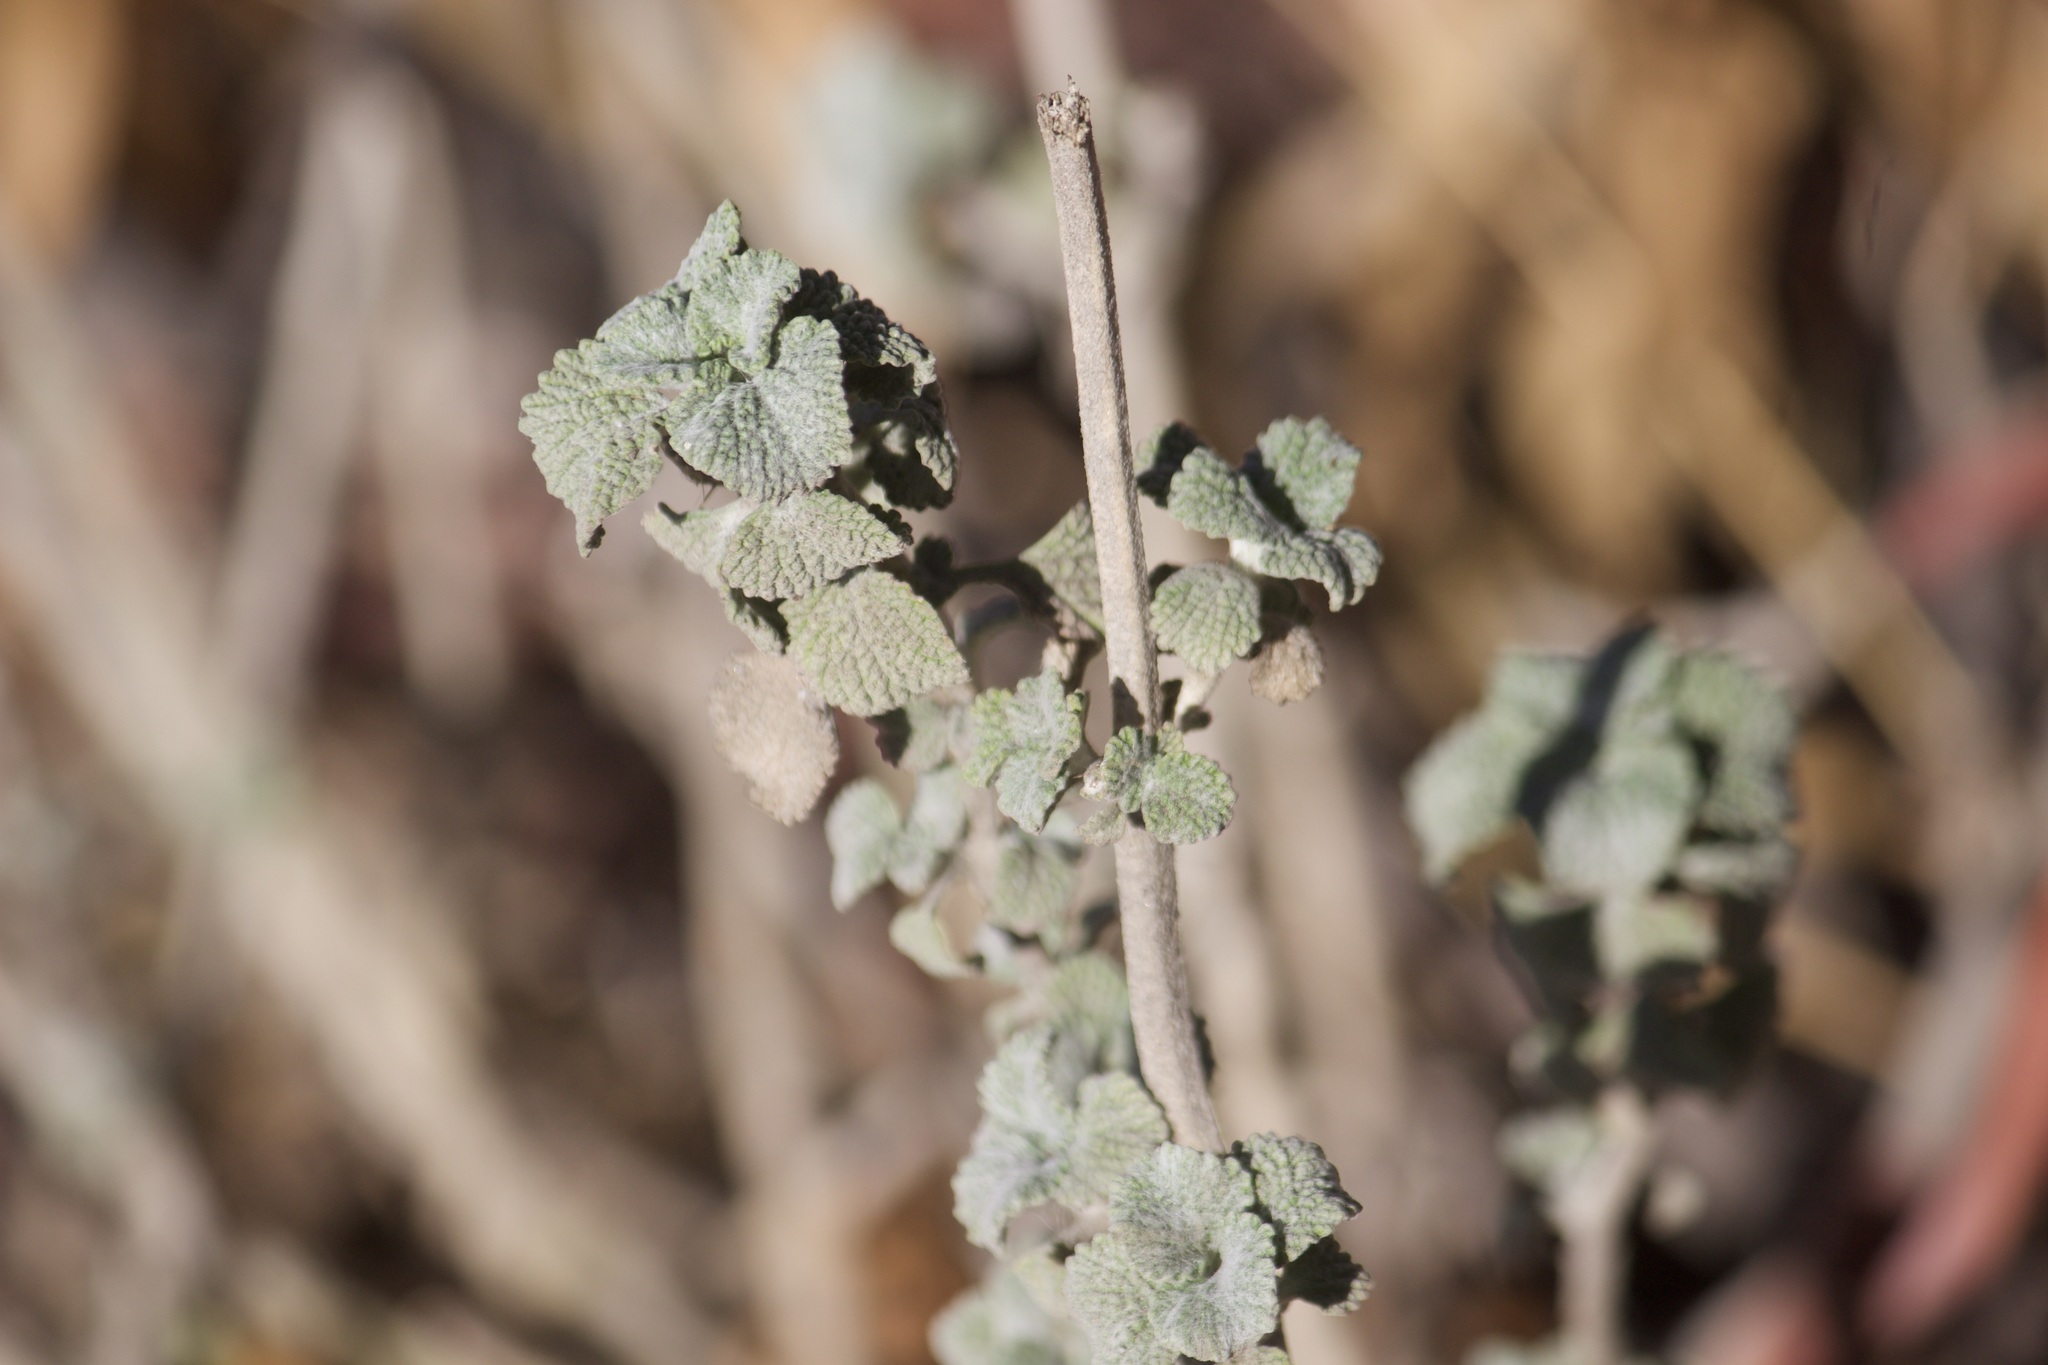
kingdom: Plantae
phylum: Tracheophyta
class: Magnoliopsida
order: Lamiales
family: Lamiaceae
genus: Marrubium
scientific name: Marrubium vulgare
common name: Horehound
